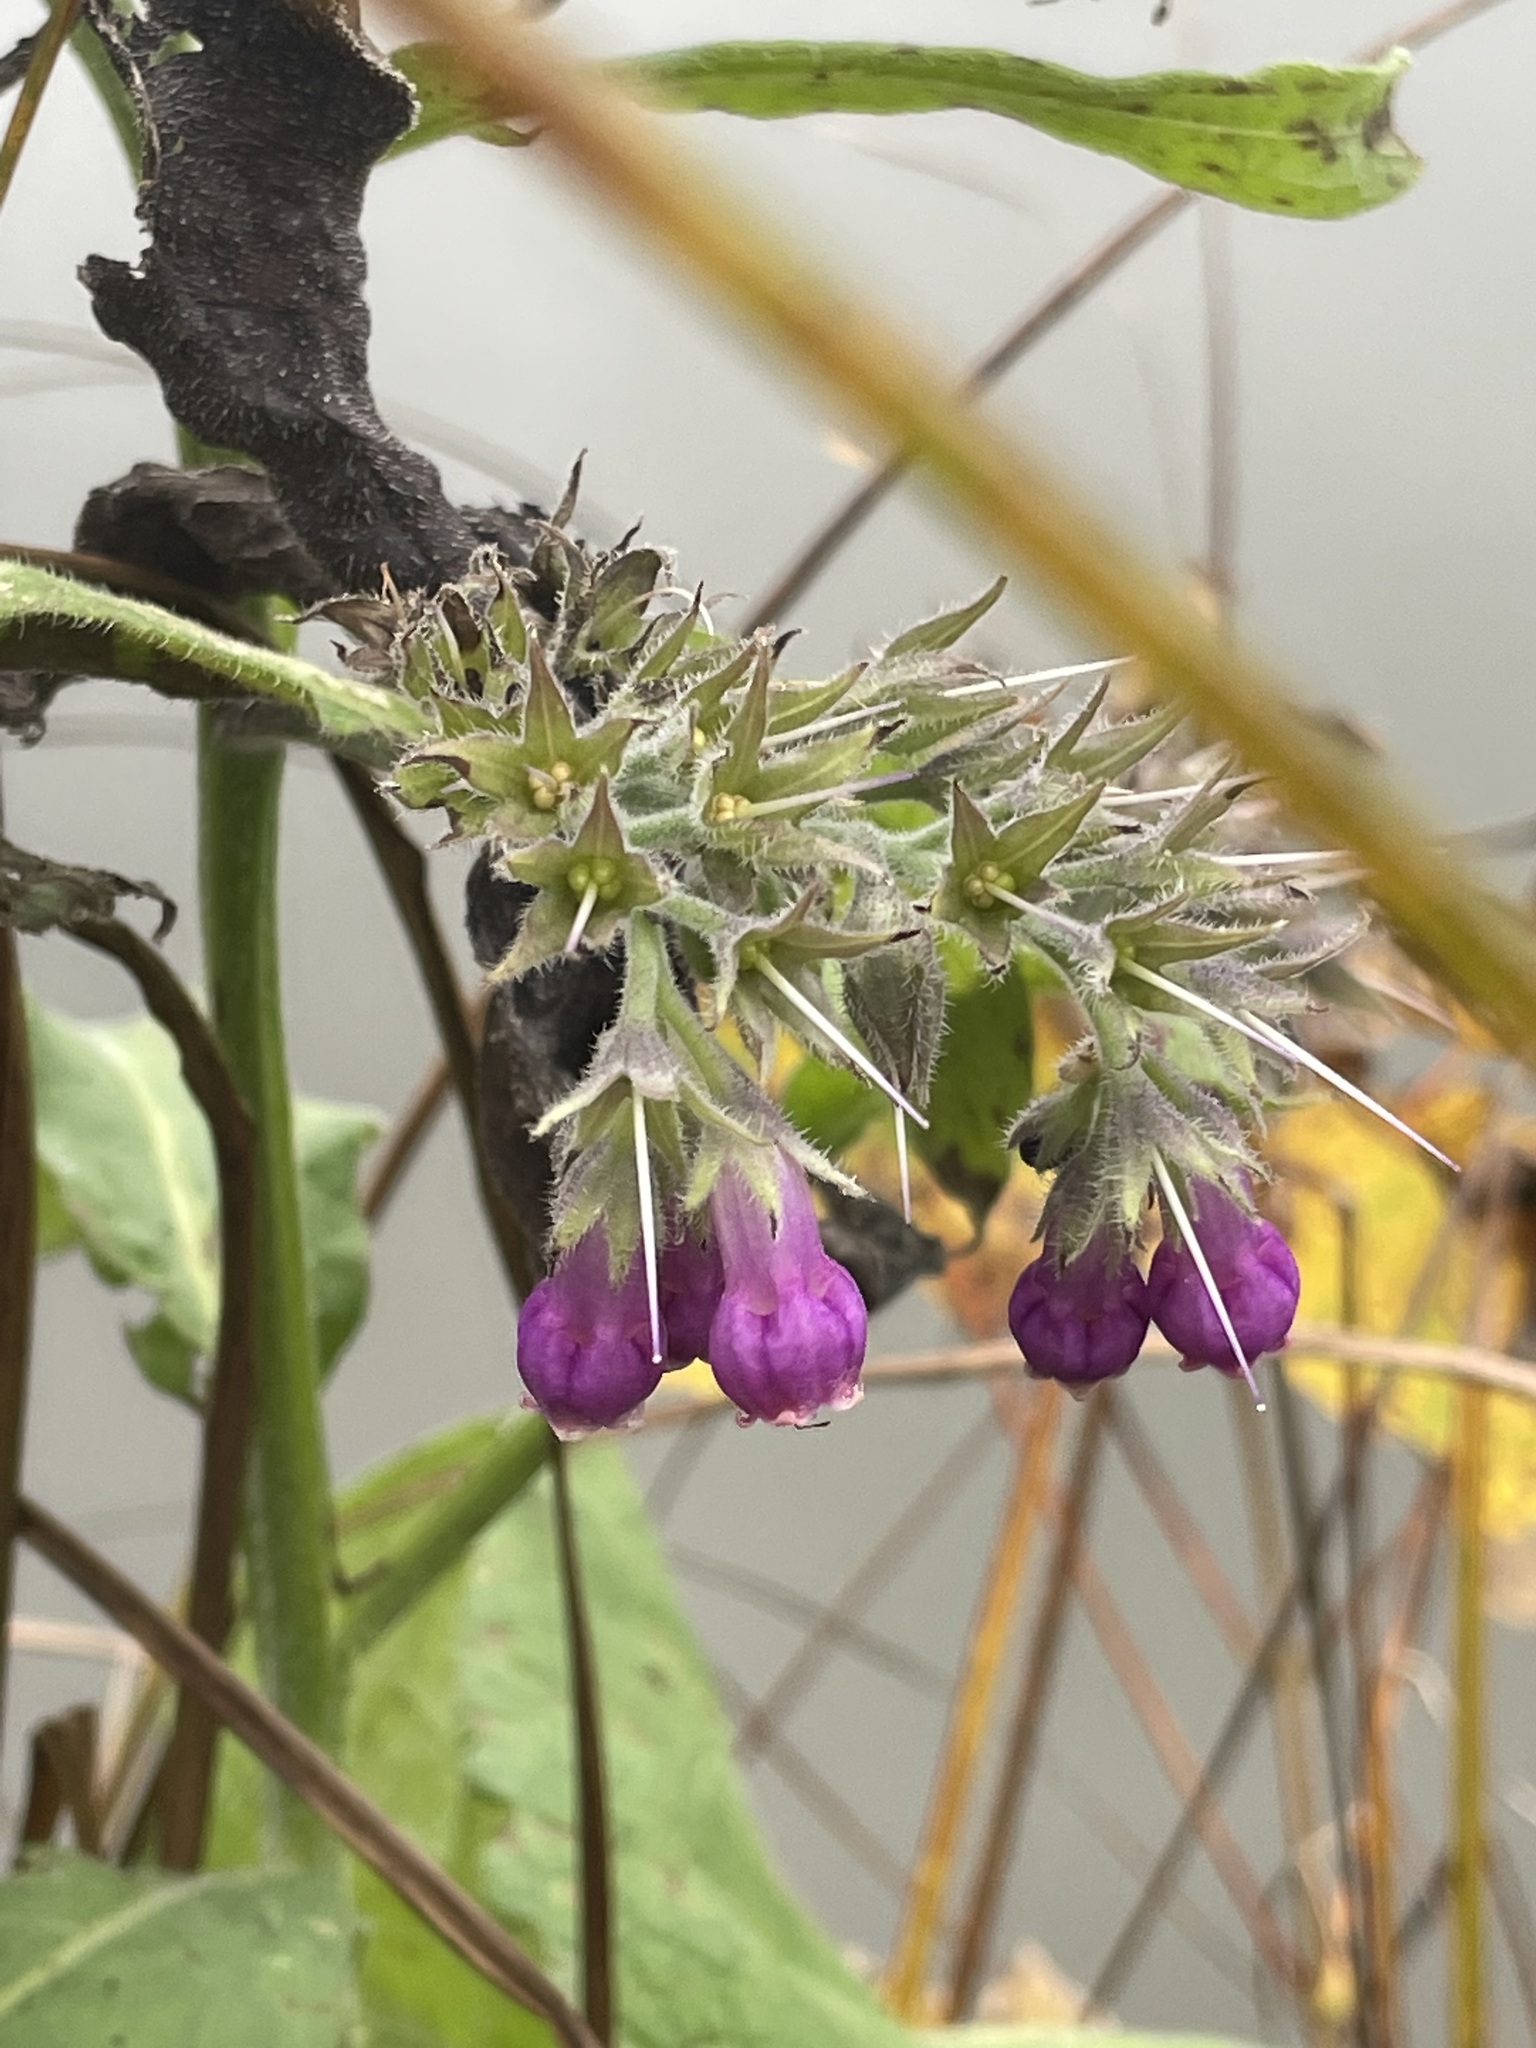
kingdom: Plantae
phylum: Tracheophyta
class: Magnoliopsida
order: Boraginales
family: Boraginaceae
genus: Symphytum
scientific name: Symphytum officinale
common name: Common comfrey
